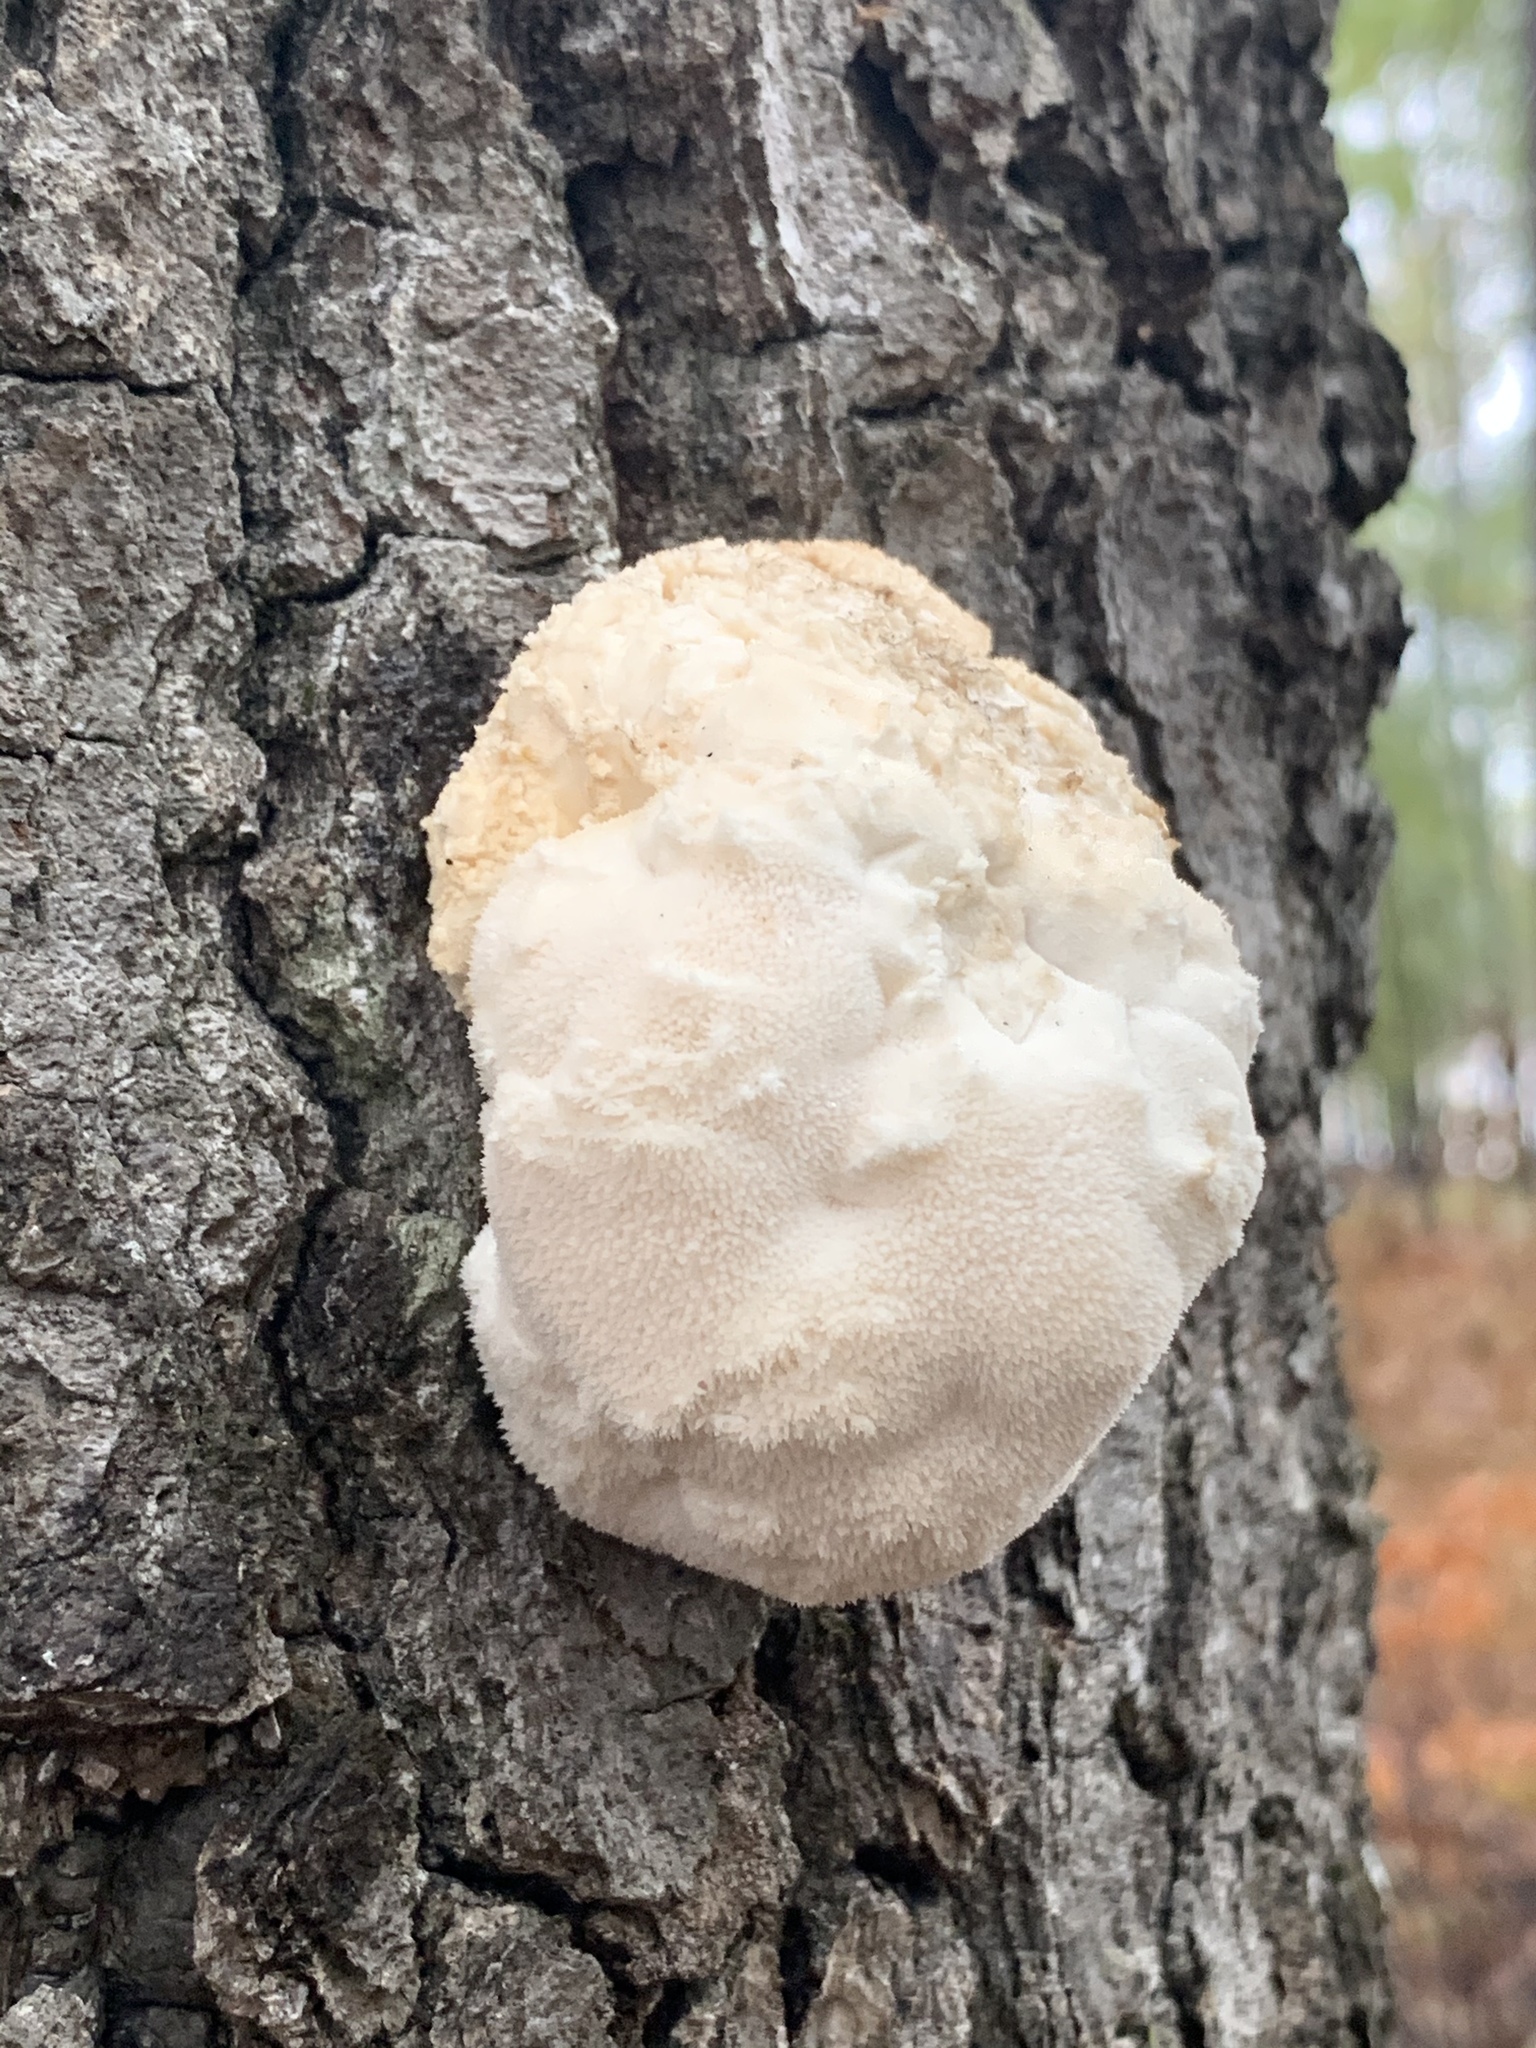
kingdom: Fungi
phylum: Basidiomycota
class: Agaricomycetes
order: Russulales
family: Hericiaceae
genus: Hericium
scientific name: Hericium erinaceus
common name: Bearded tooth
